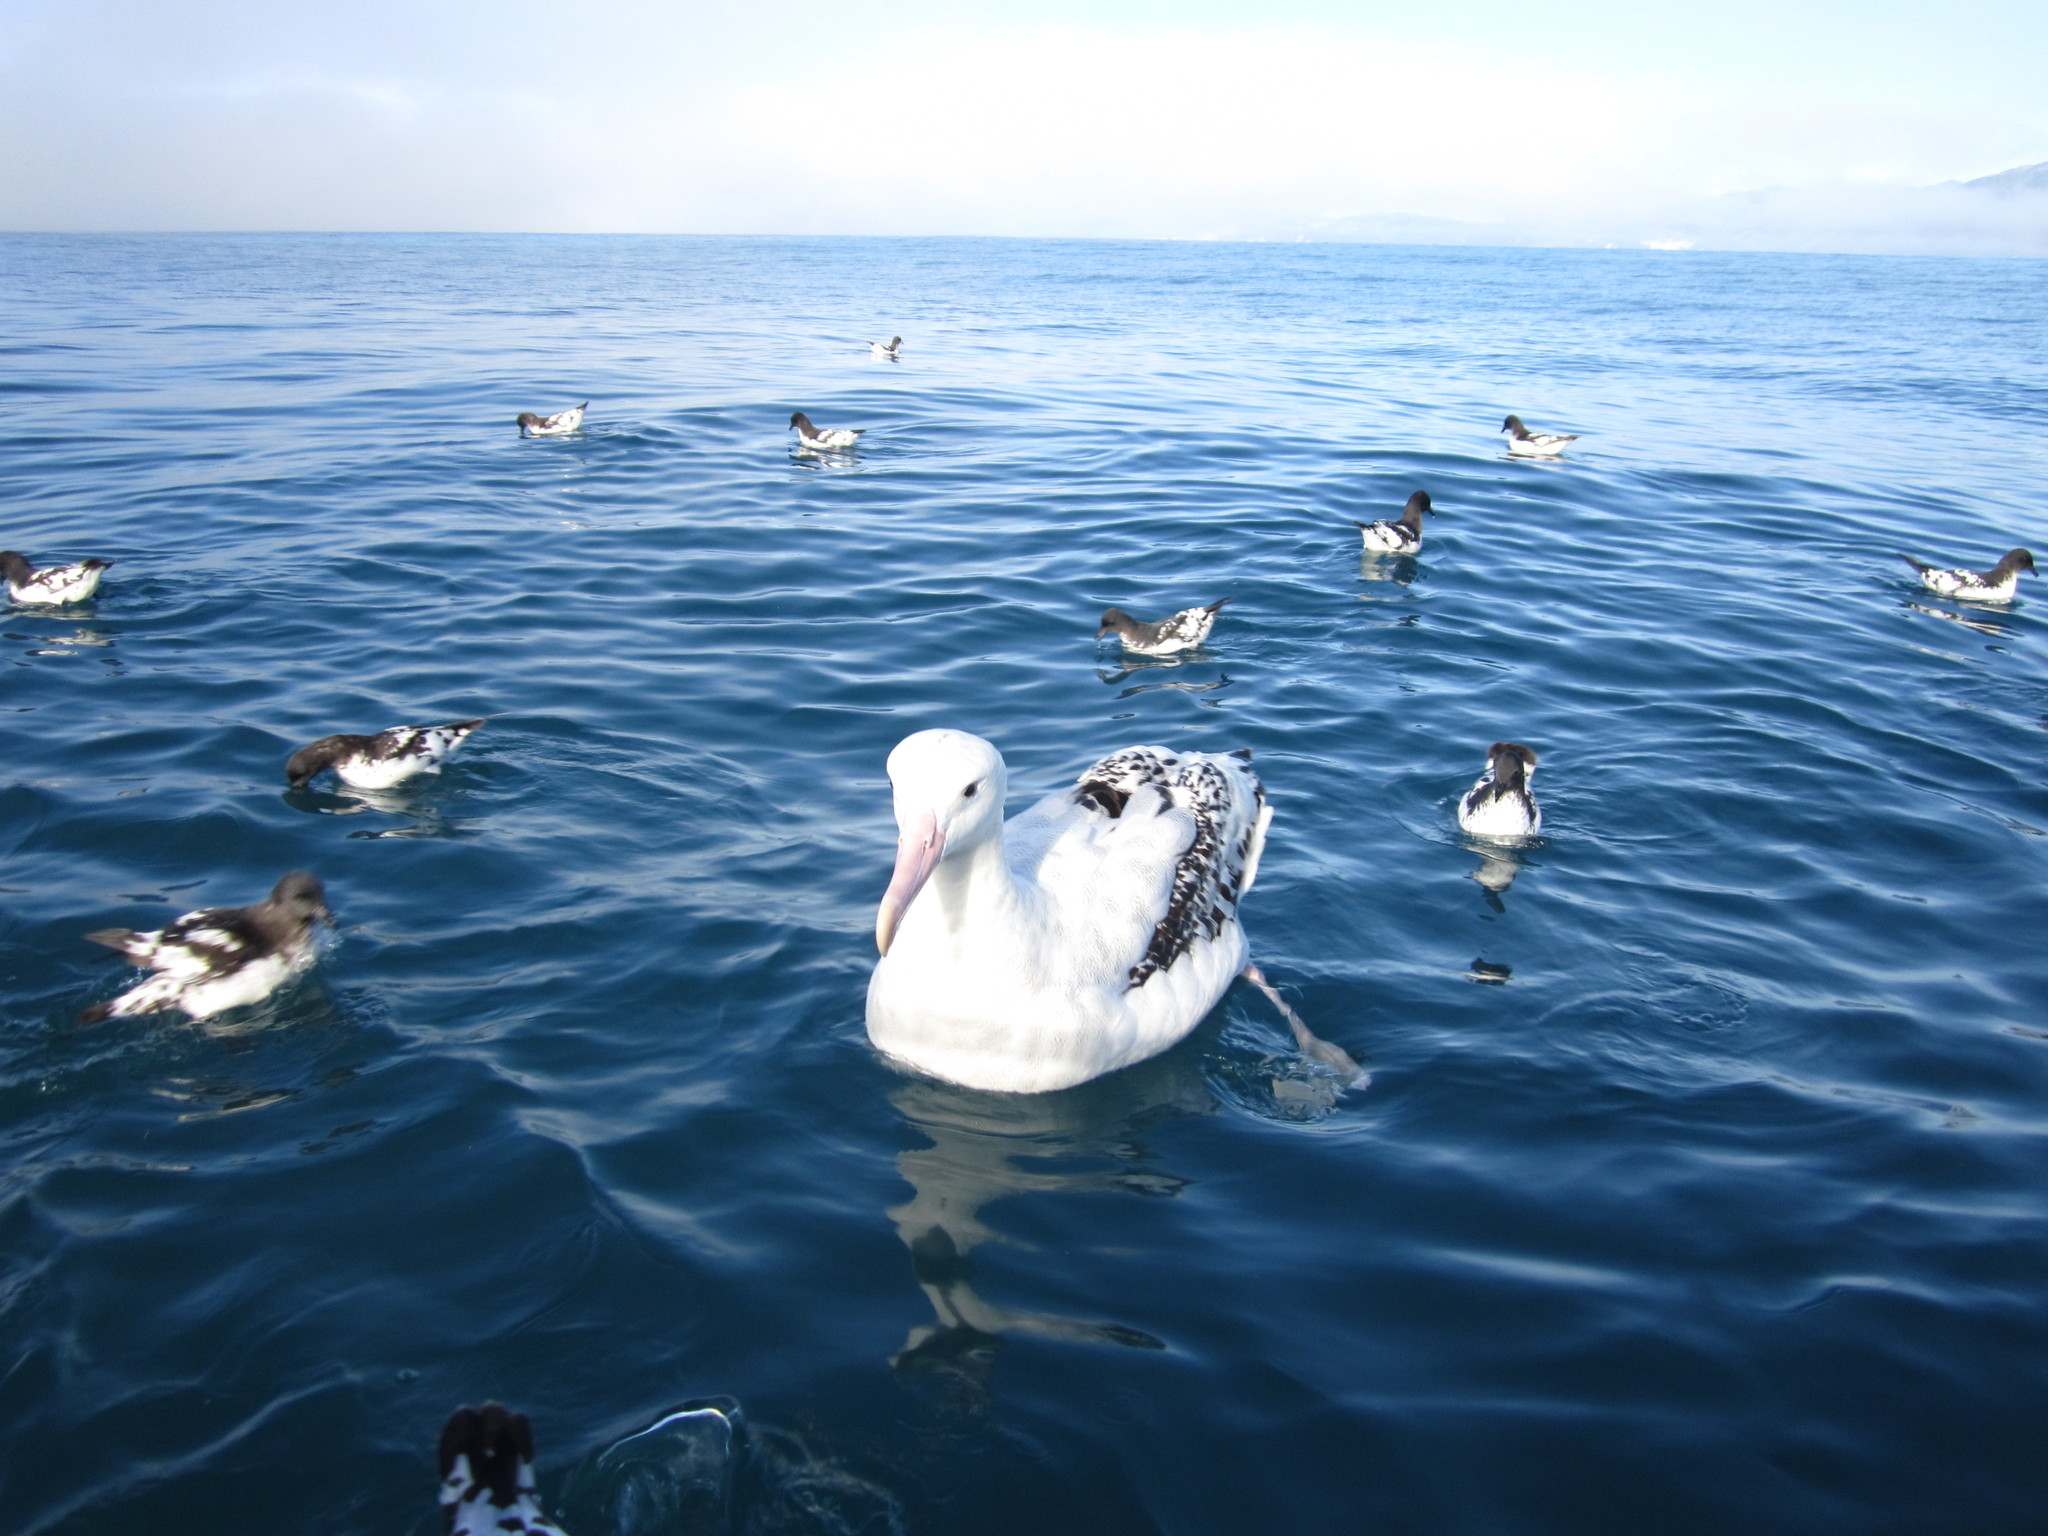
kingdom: Animalia
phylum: Chordata
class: Aves
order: Procellariiformes
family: Diomedeidae
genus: Diomedea
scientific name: Diomedea antipodensis
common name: Antipodean albatross
